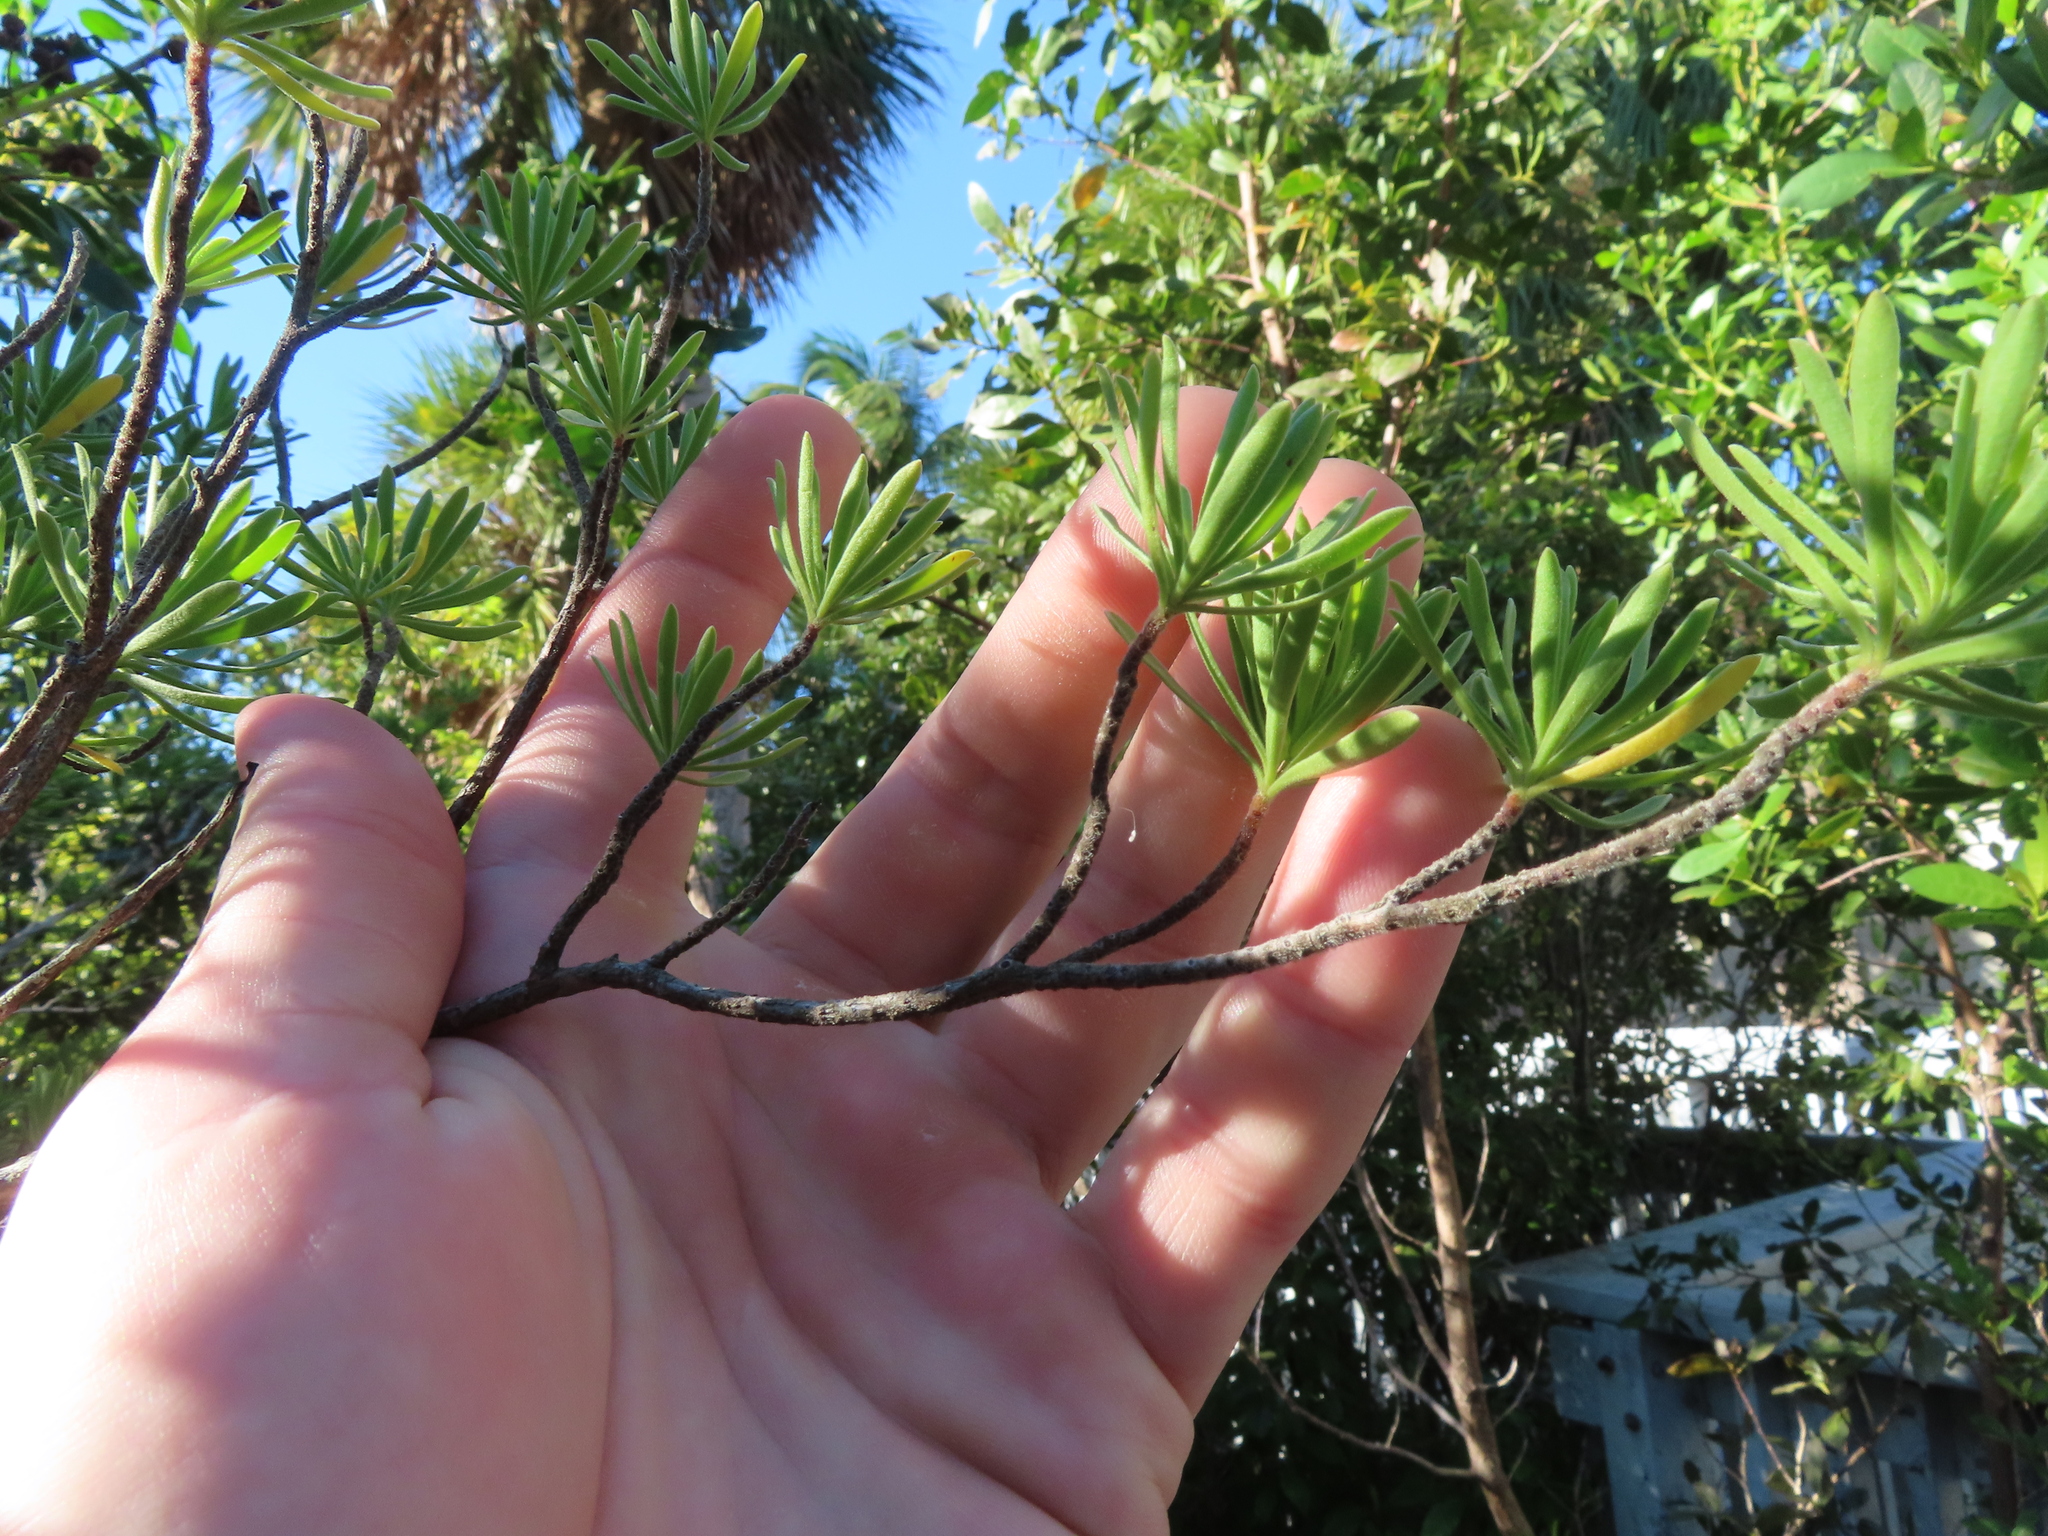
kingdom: Plantae
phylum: Tracheophyta
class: Magnoliopsida
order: Fabales
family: Surianaceae
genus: Suriana
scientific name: Suriana maritima
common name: Bay-cedar
